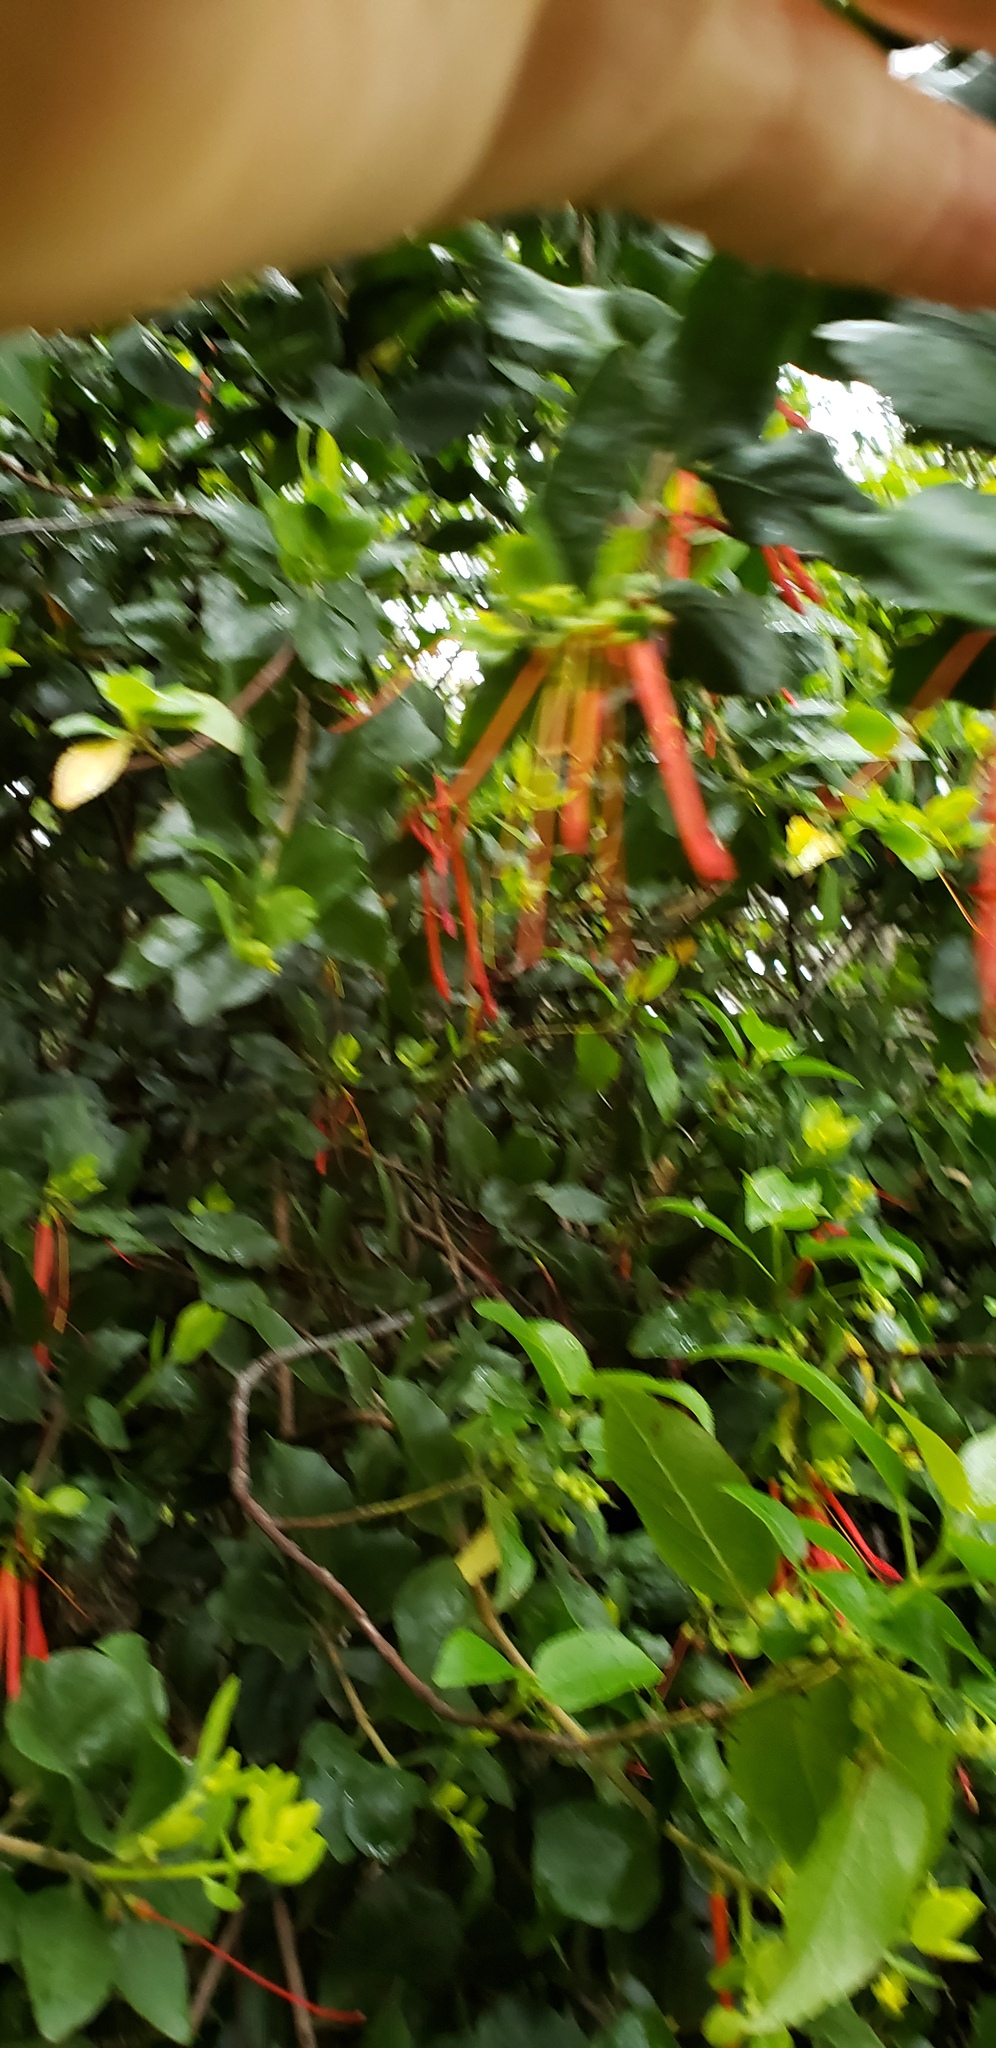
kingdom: Plantae
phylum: Tracheophyta
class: Magnoliopsida
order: Santalales
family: Loranthaceae
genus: Tristerix
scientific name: Tristerix corymbosus
